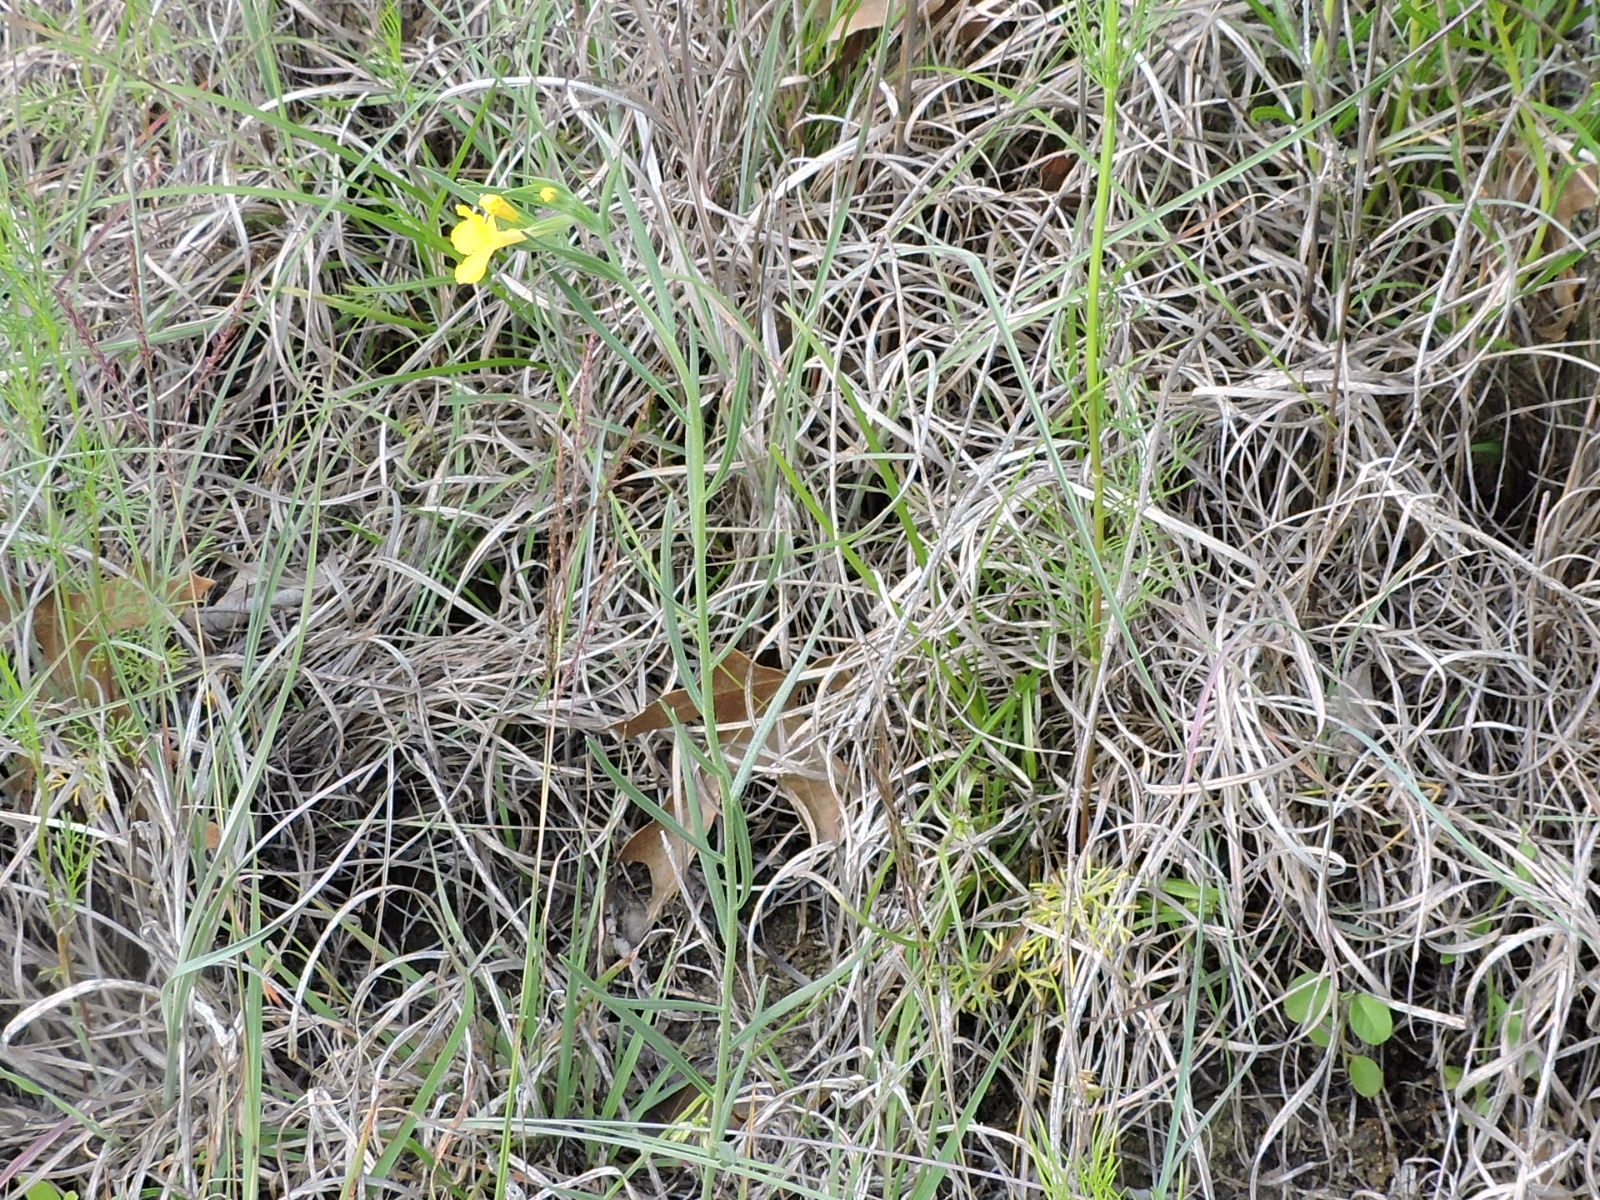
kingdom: Plantae
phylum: Tracheophyta
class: Magnoliopsida
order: Boraginales
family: Boraginaceae
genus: Lithospermum
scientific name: Lithospermum incisum
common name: Fringed gromwell
